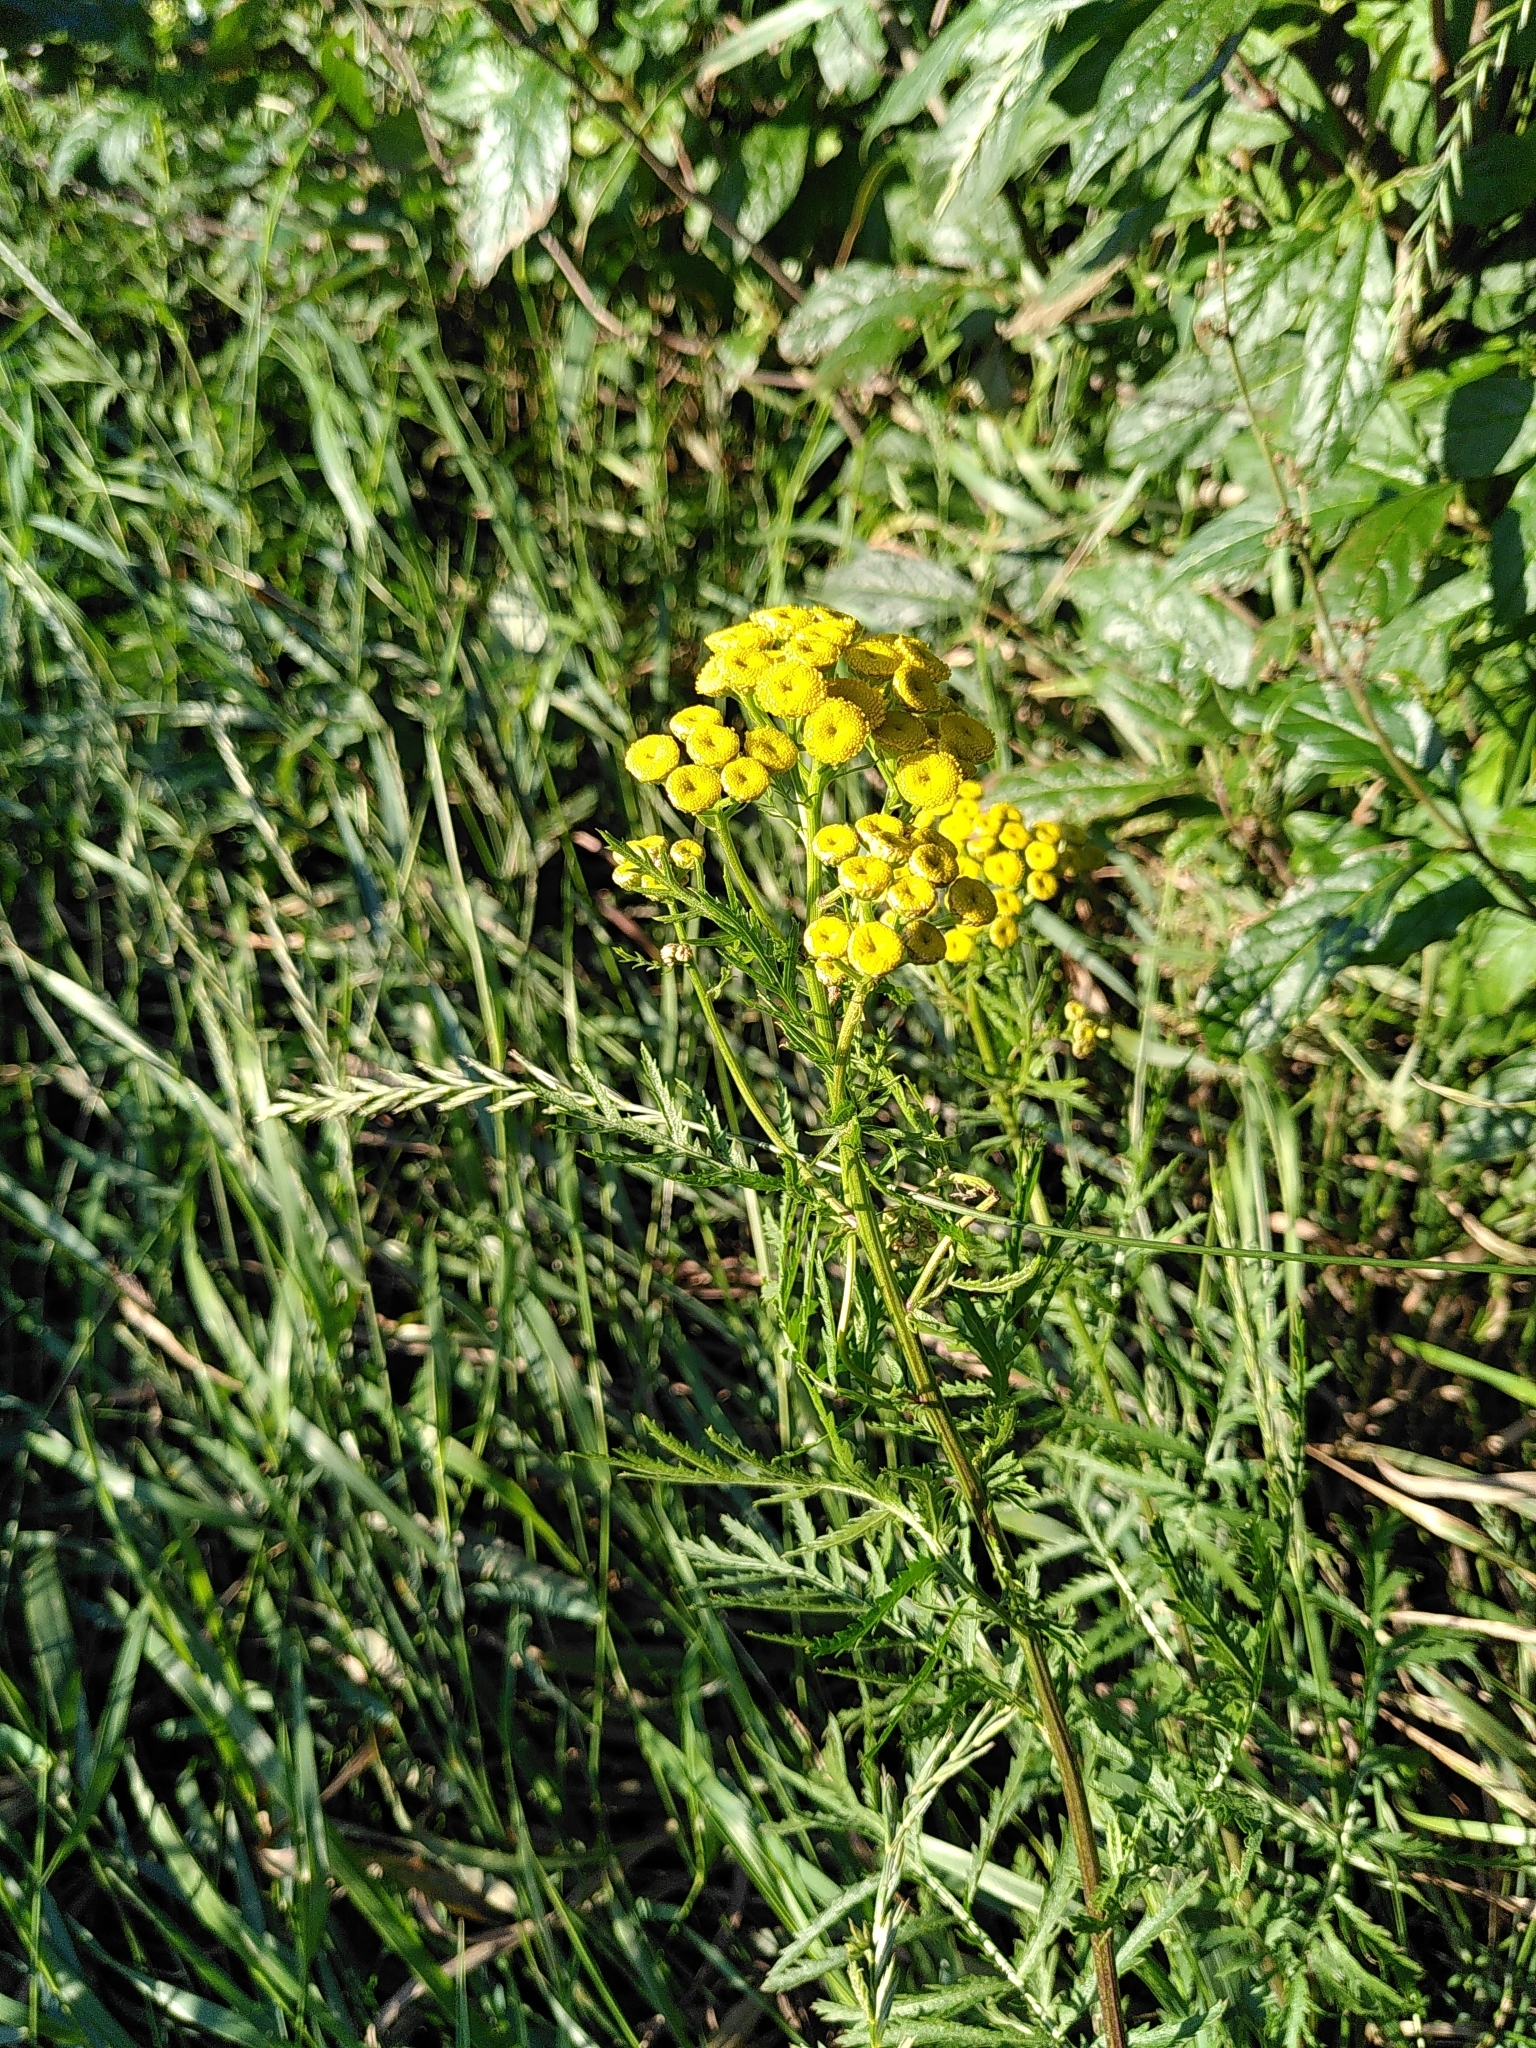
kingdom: Plantae
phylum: Tracheophyta
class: Magnoliopsida
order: Asterales
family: Asteraceae
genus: Tanacetum
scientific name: Tanacetum vulgare
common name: Common tansy
